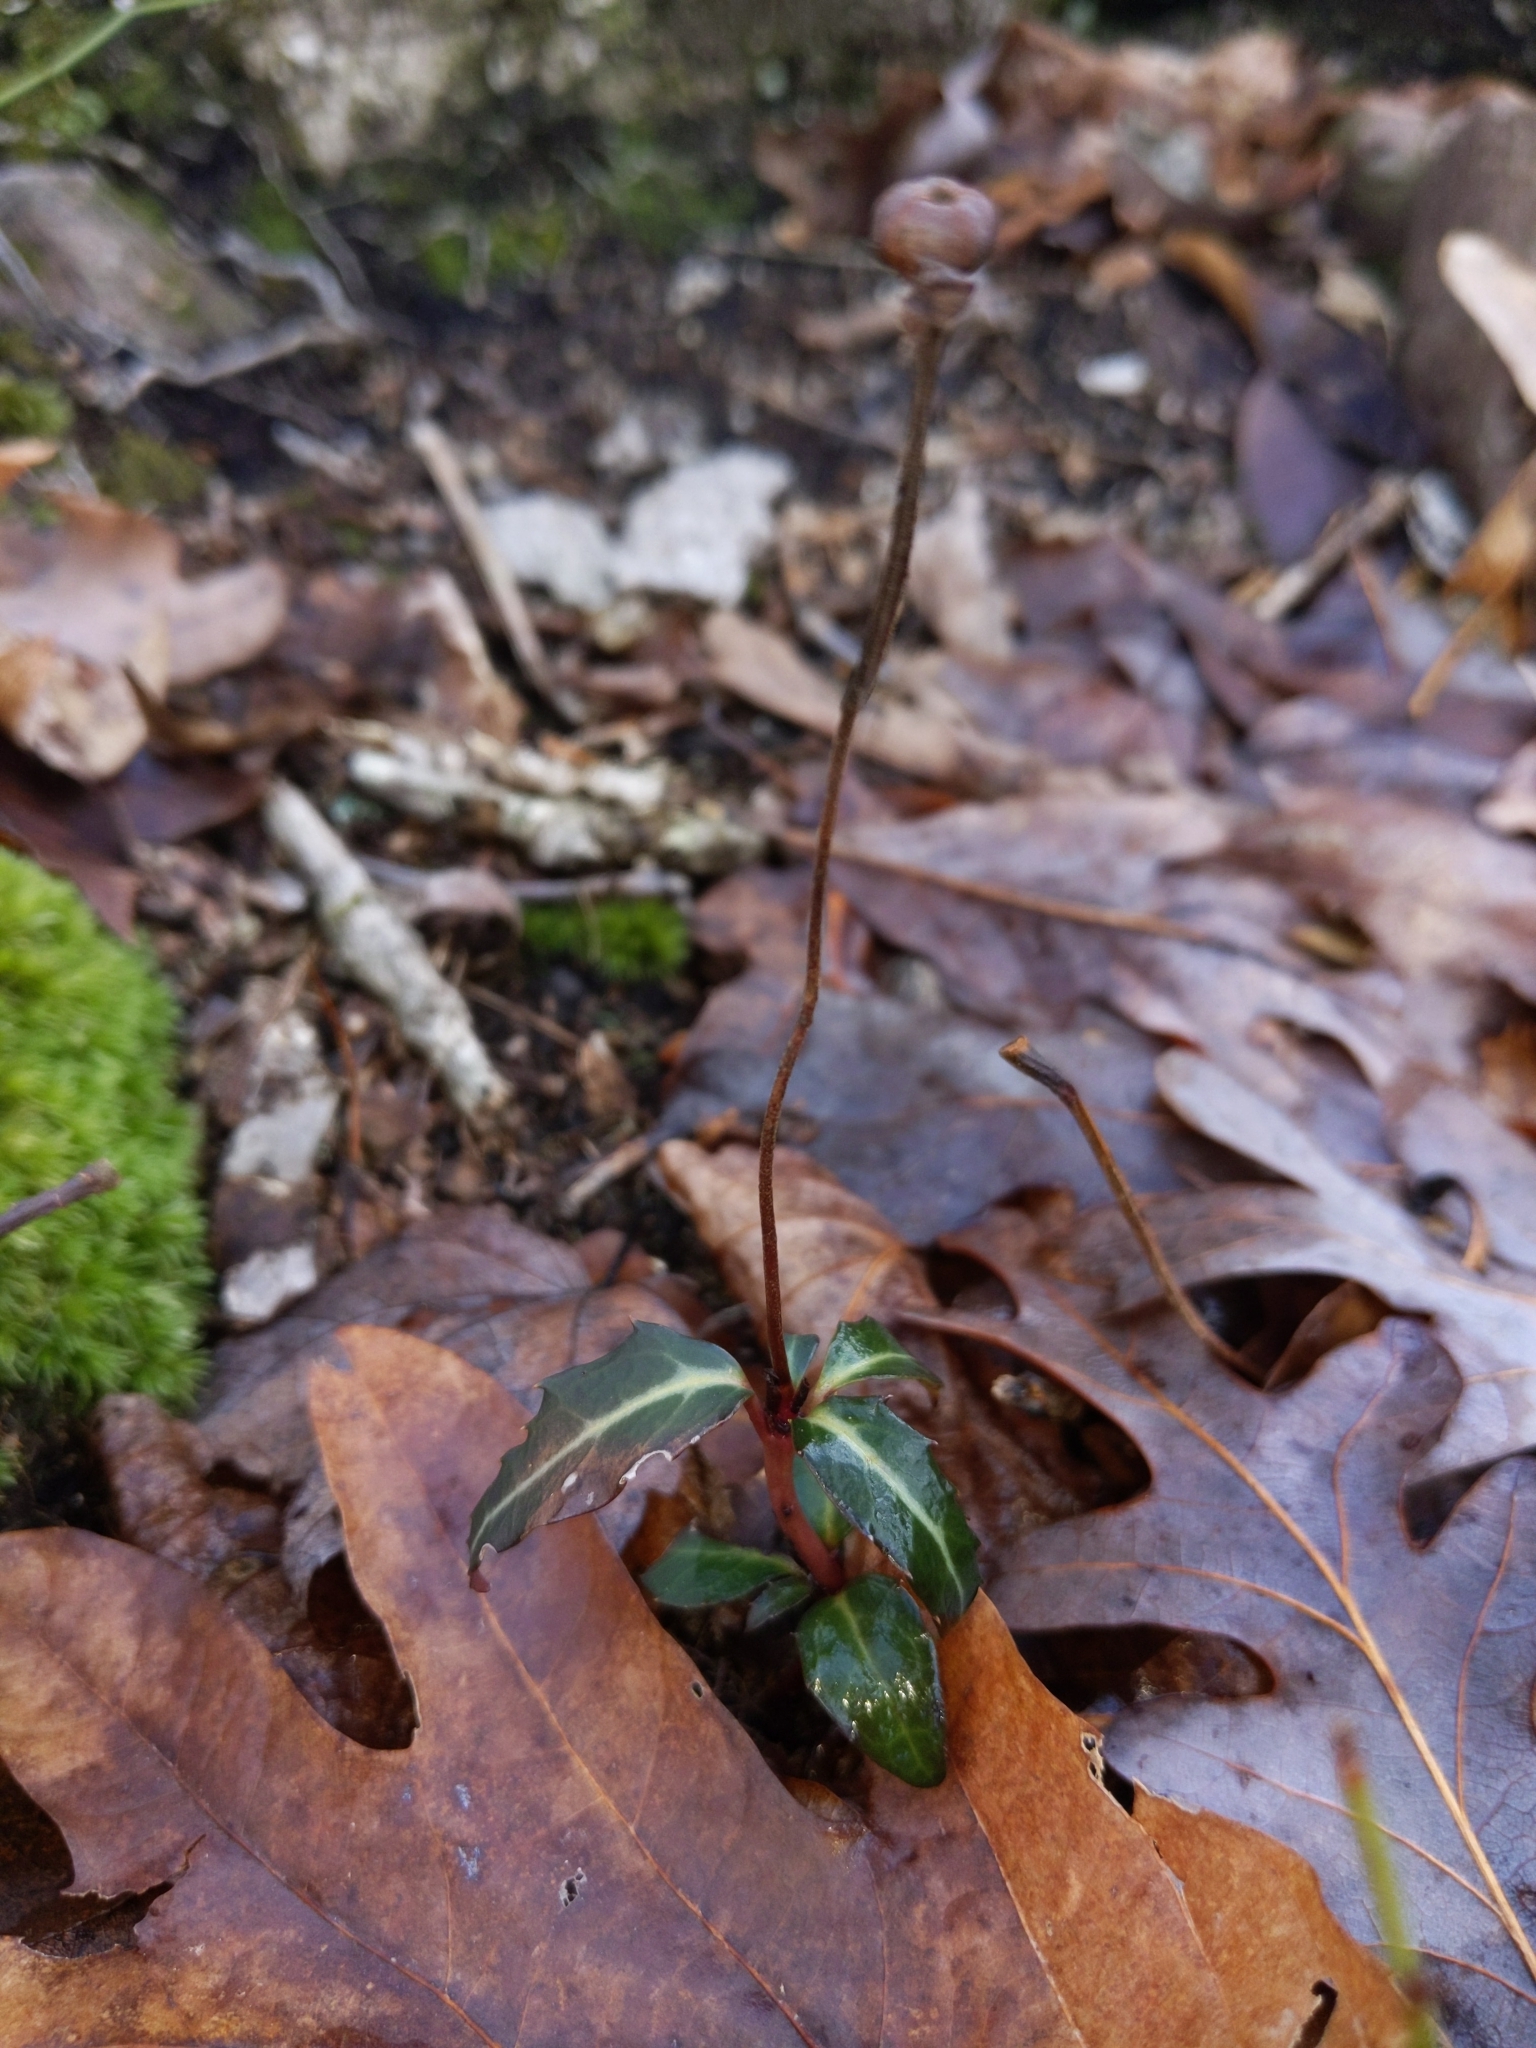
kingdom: Plantae
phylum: Tracheophyta
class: Magnoliopsida
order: Ericales
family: Ericaceae
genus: Chimaphila
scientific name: Chimaphila maculata
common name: Spotted pipsissewa
